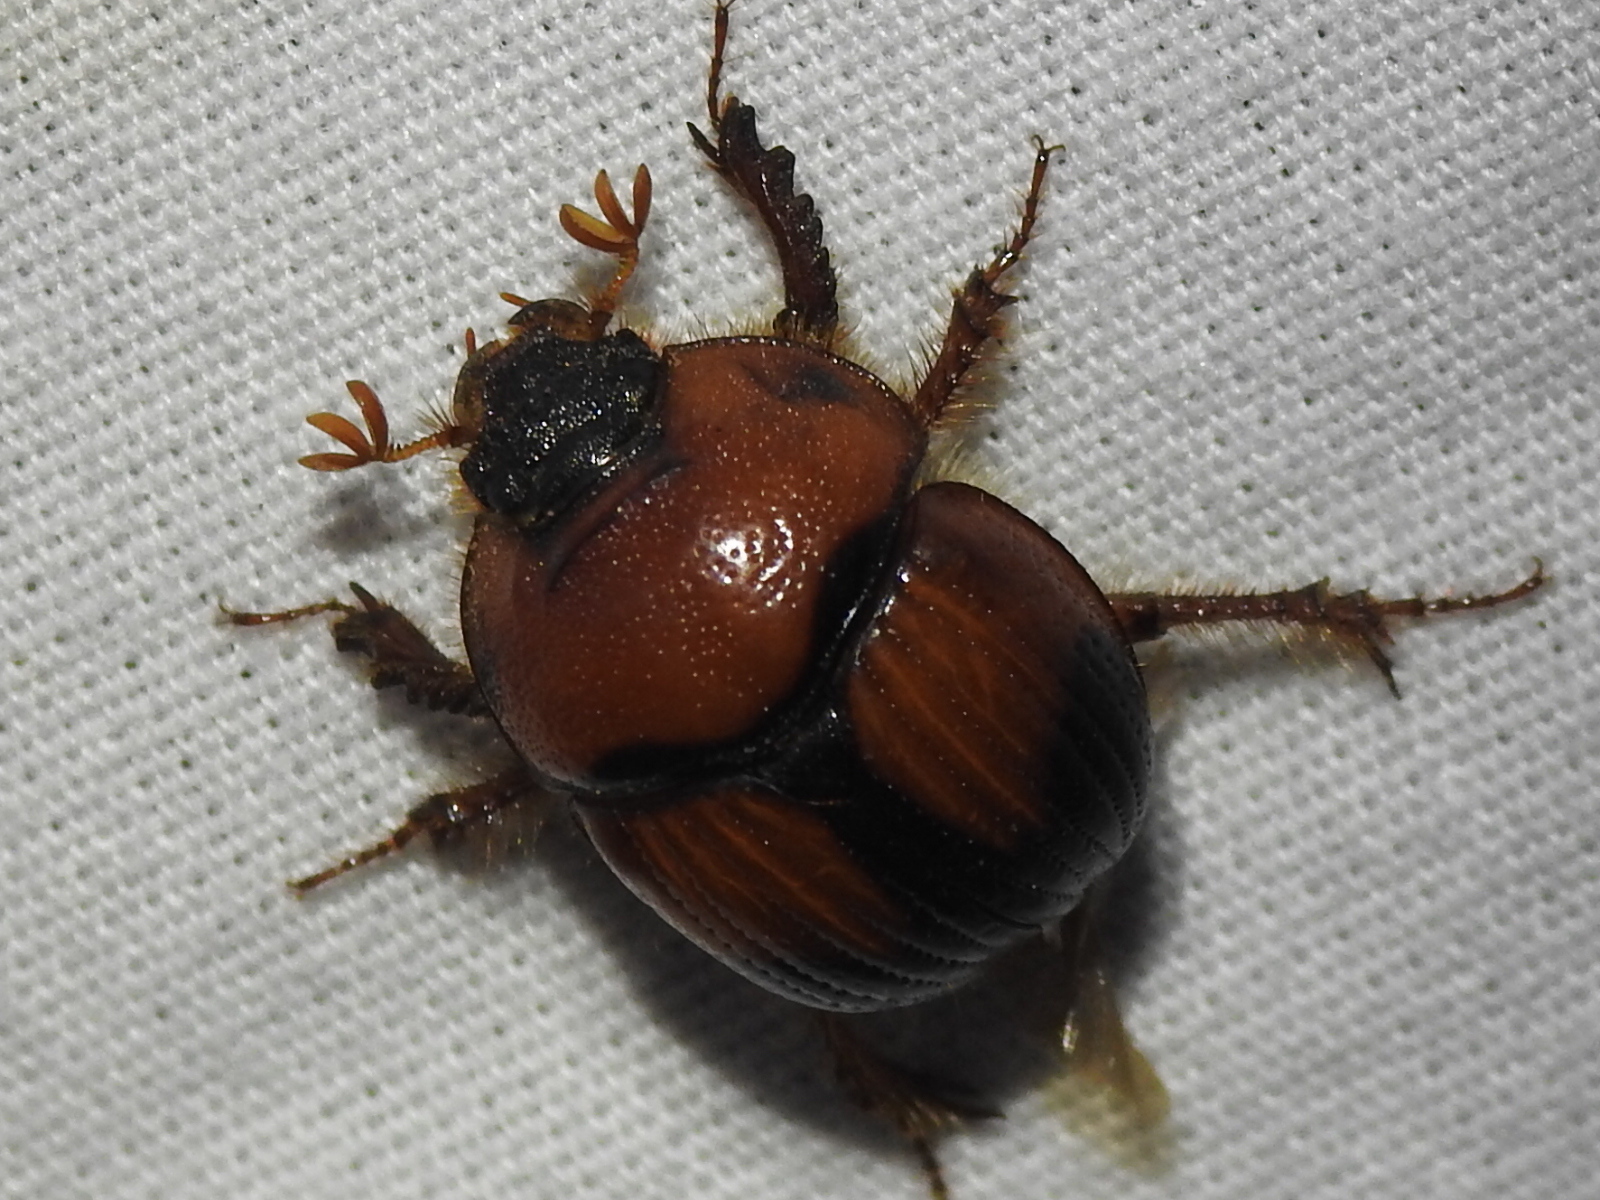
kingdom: Animalia
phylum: Arthropoda
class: Insecta
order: Coleoptera
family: Geotrupidae
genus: Bolbocerosoma
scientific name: Bolbocerosoma pusillum
